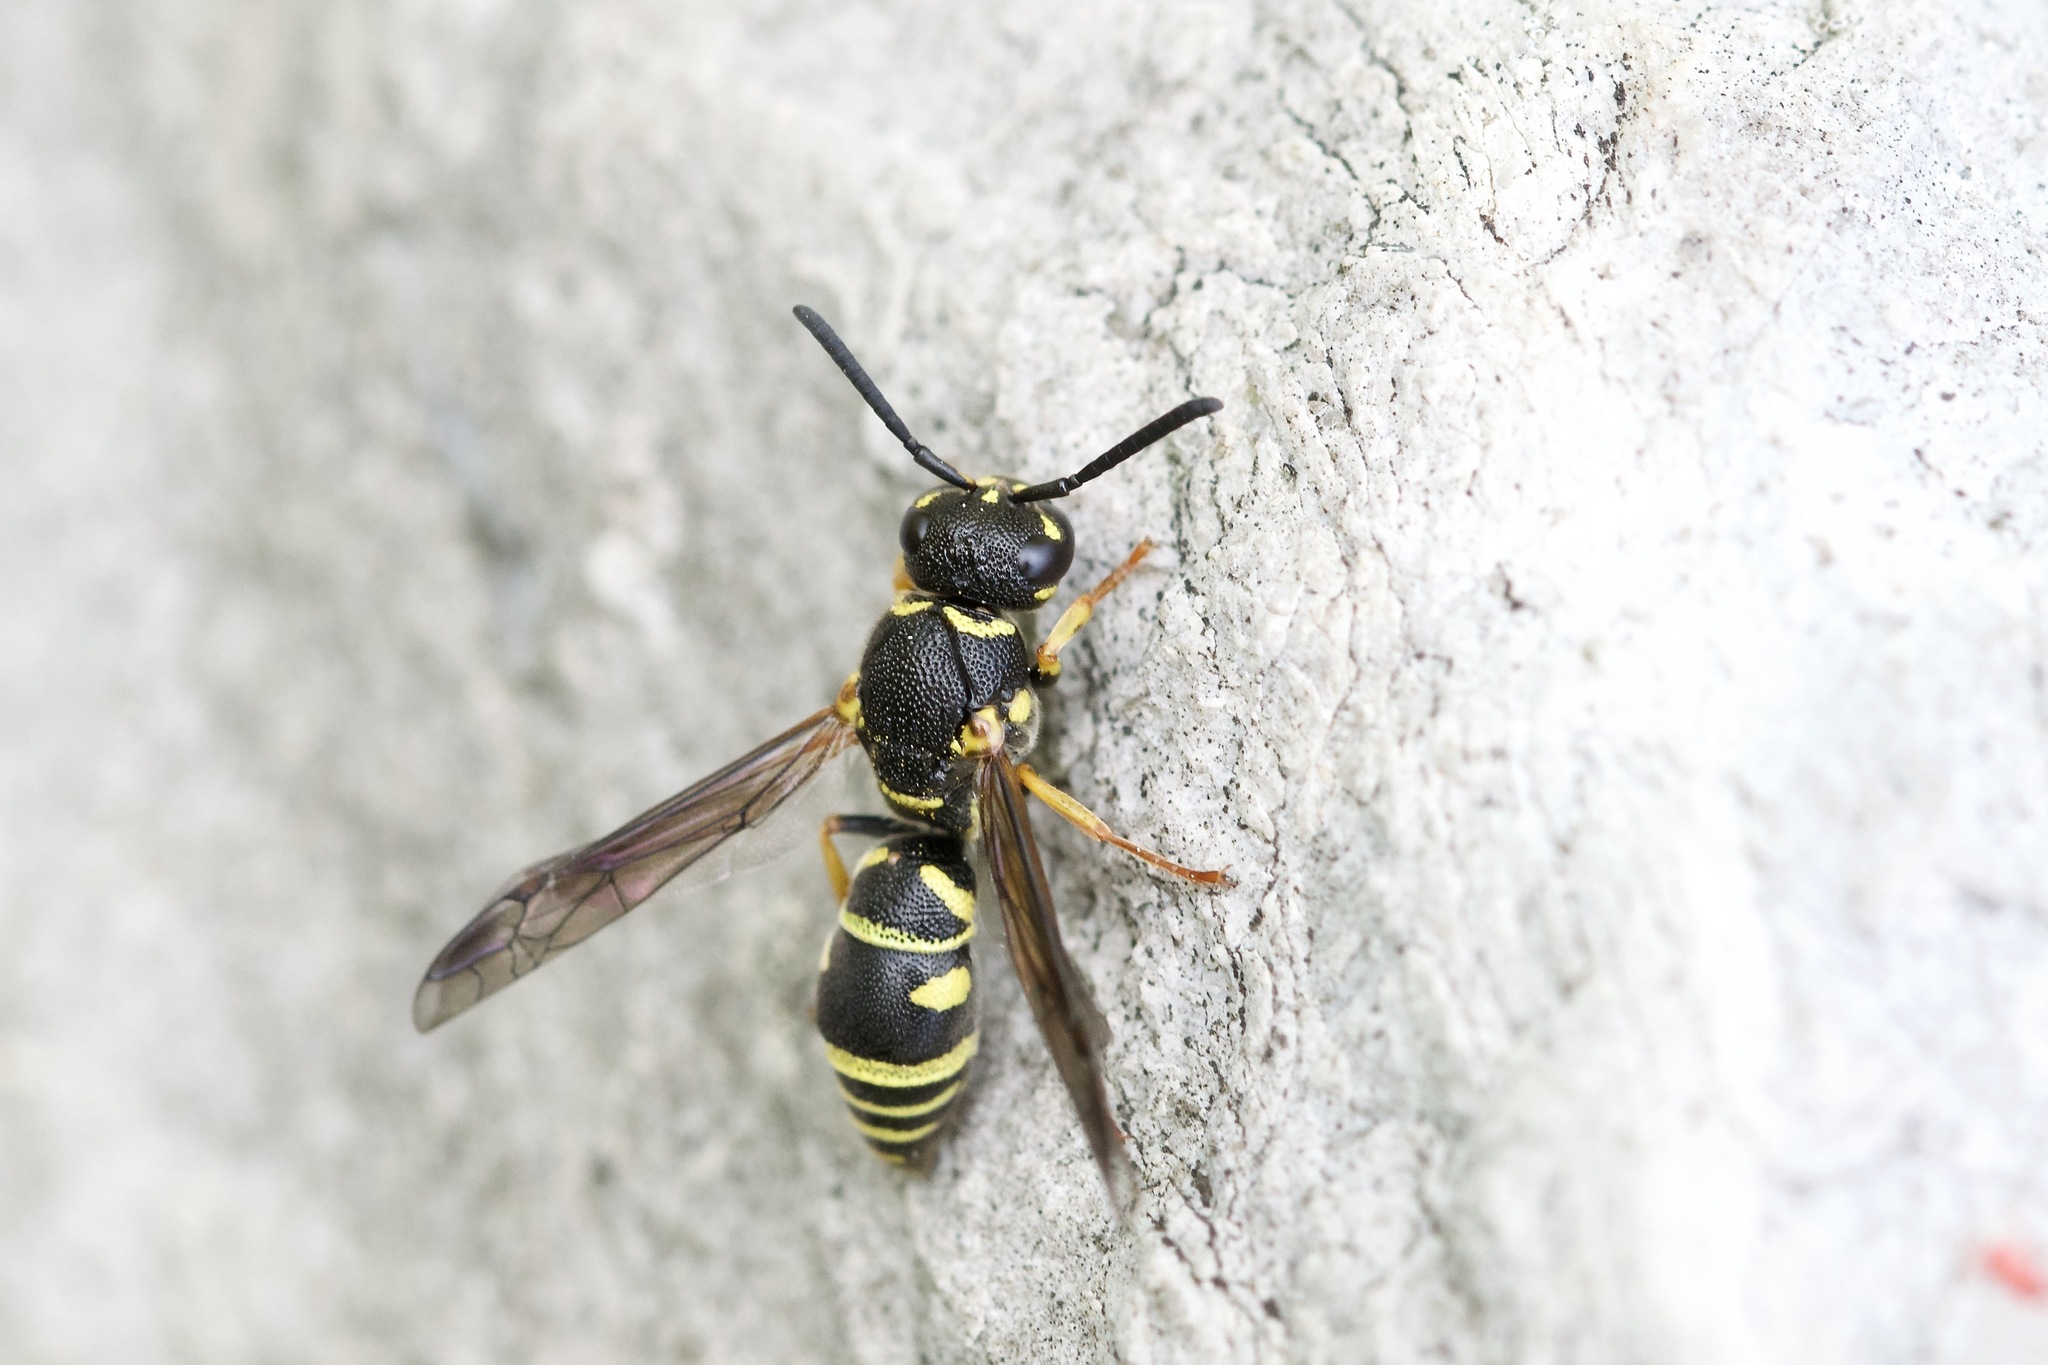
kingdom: Animalia
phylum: Arthropoda
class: Insecta
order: Hymenoptera
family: Eumenidae
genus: Parancistrocerus
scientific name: Parancistrocerus leionotus
